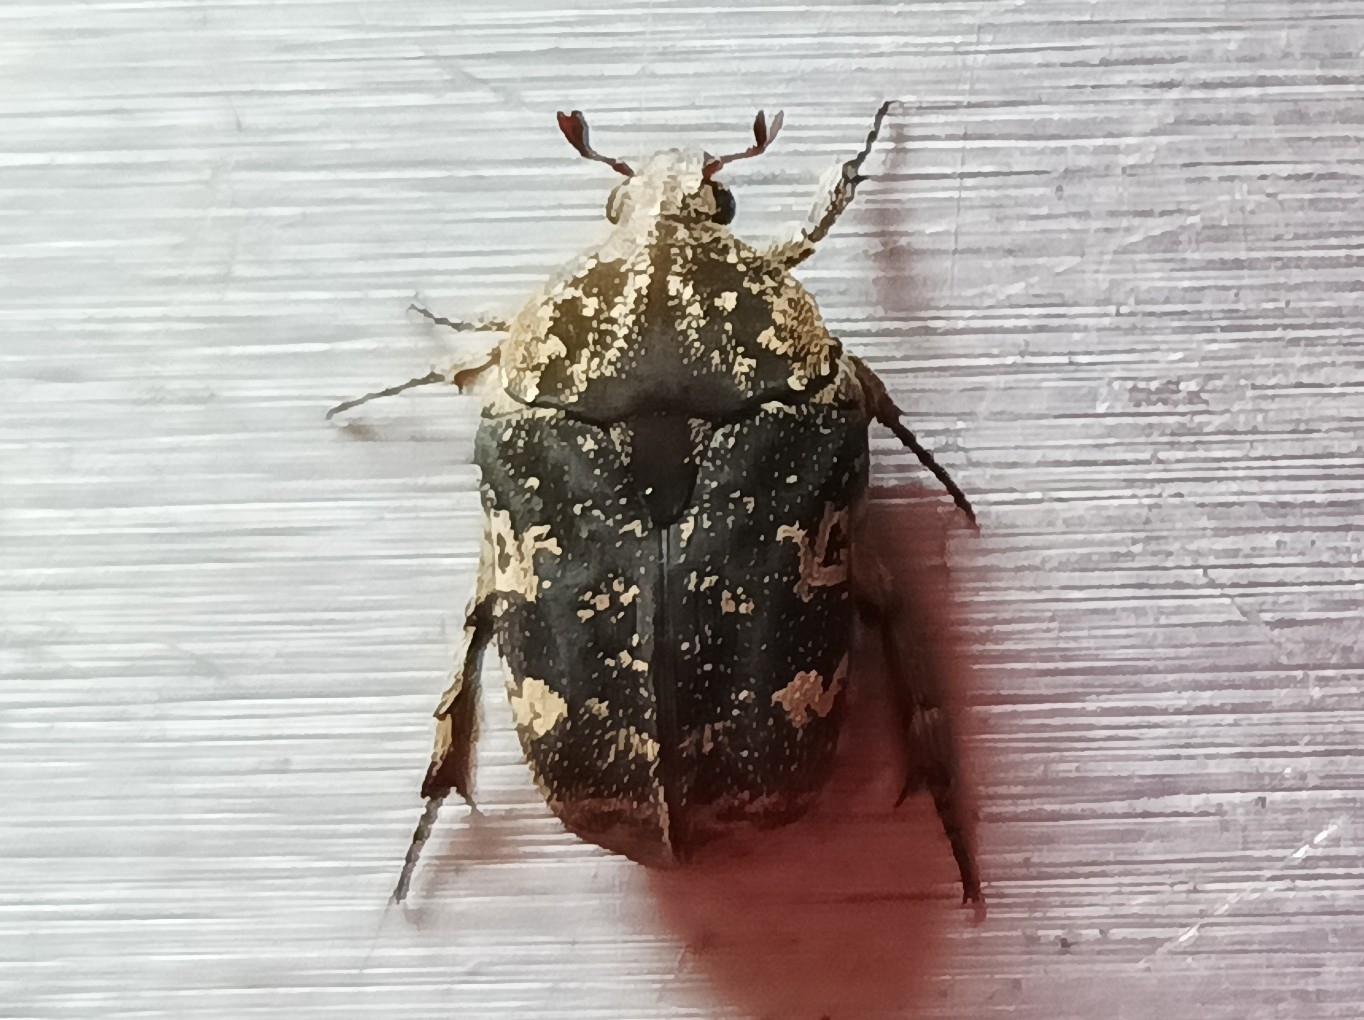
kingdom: Animalia
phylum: Arthropoda
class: Insecta
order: Coleoptera
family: Scarabaeidae
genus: Protaetia
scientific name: Protaetia fusca
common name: Mango flower beetle
